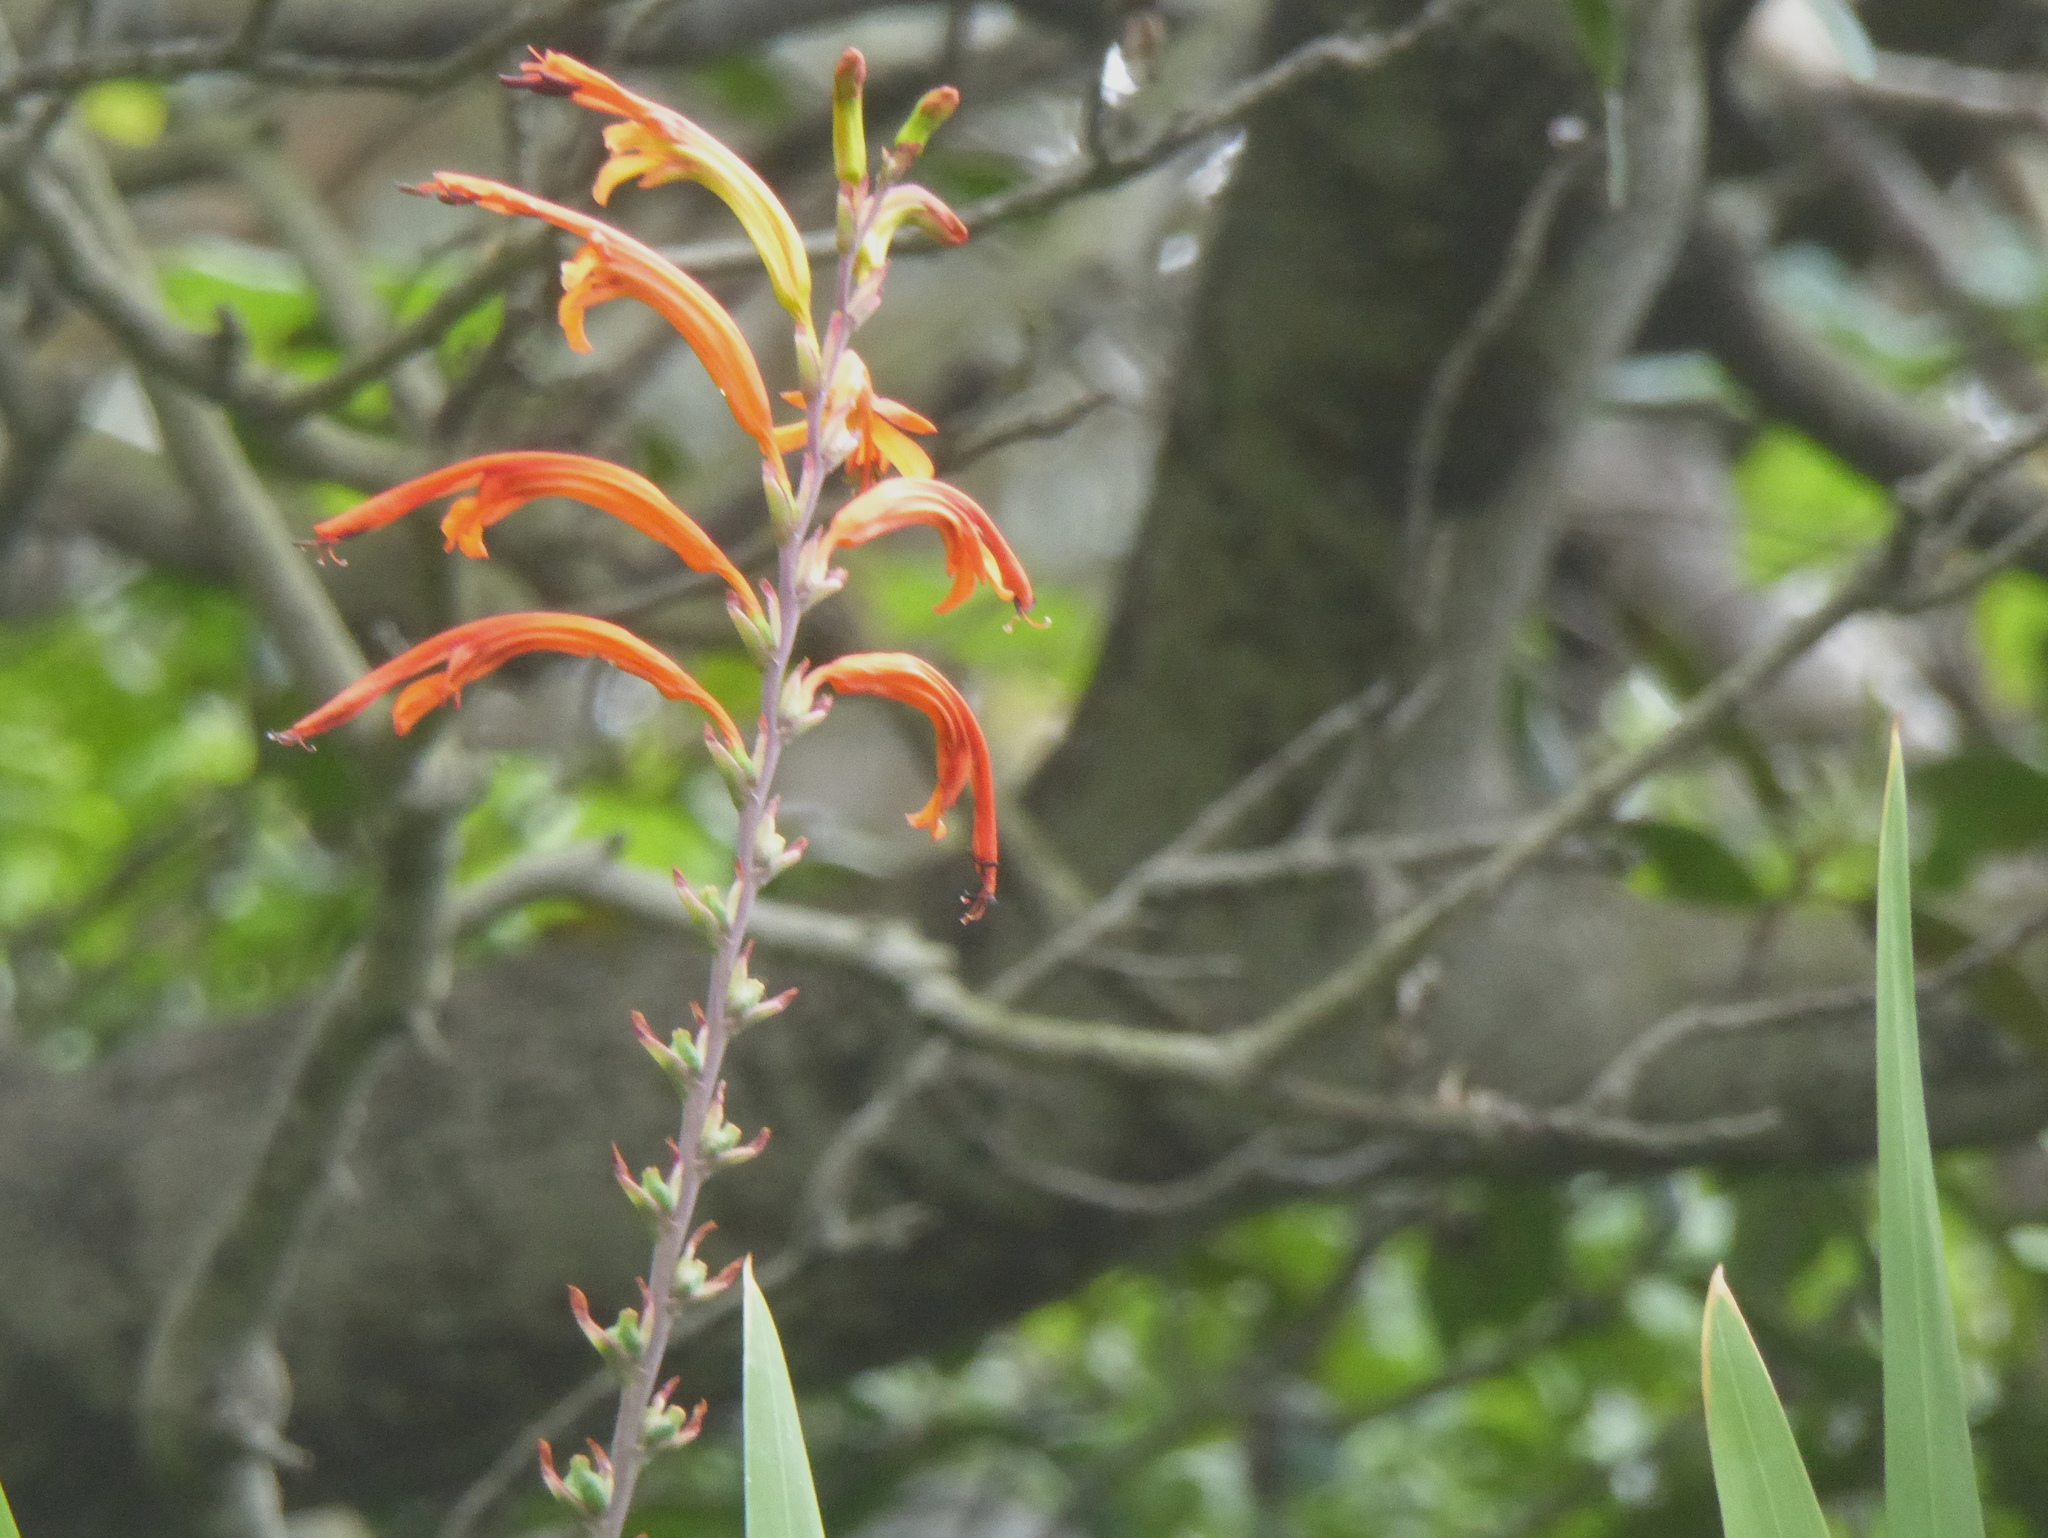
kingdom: Plantae
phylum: Tracheophyta
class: Liliopsida
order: Asparagales
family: Iridaceae
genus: Chasmanthe
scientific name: Chasmanthe floribunda
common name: African cornflag
